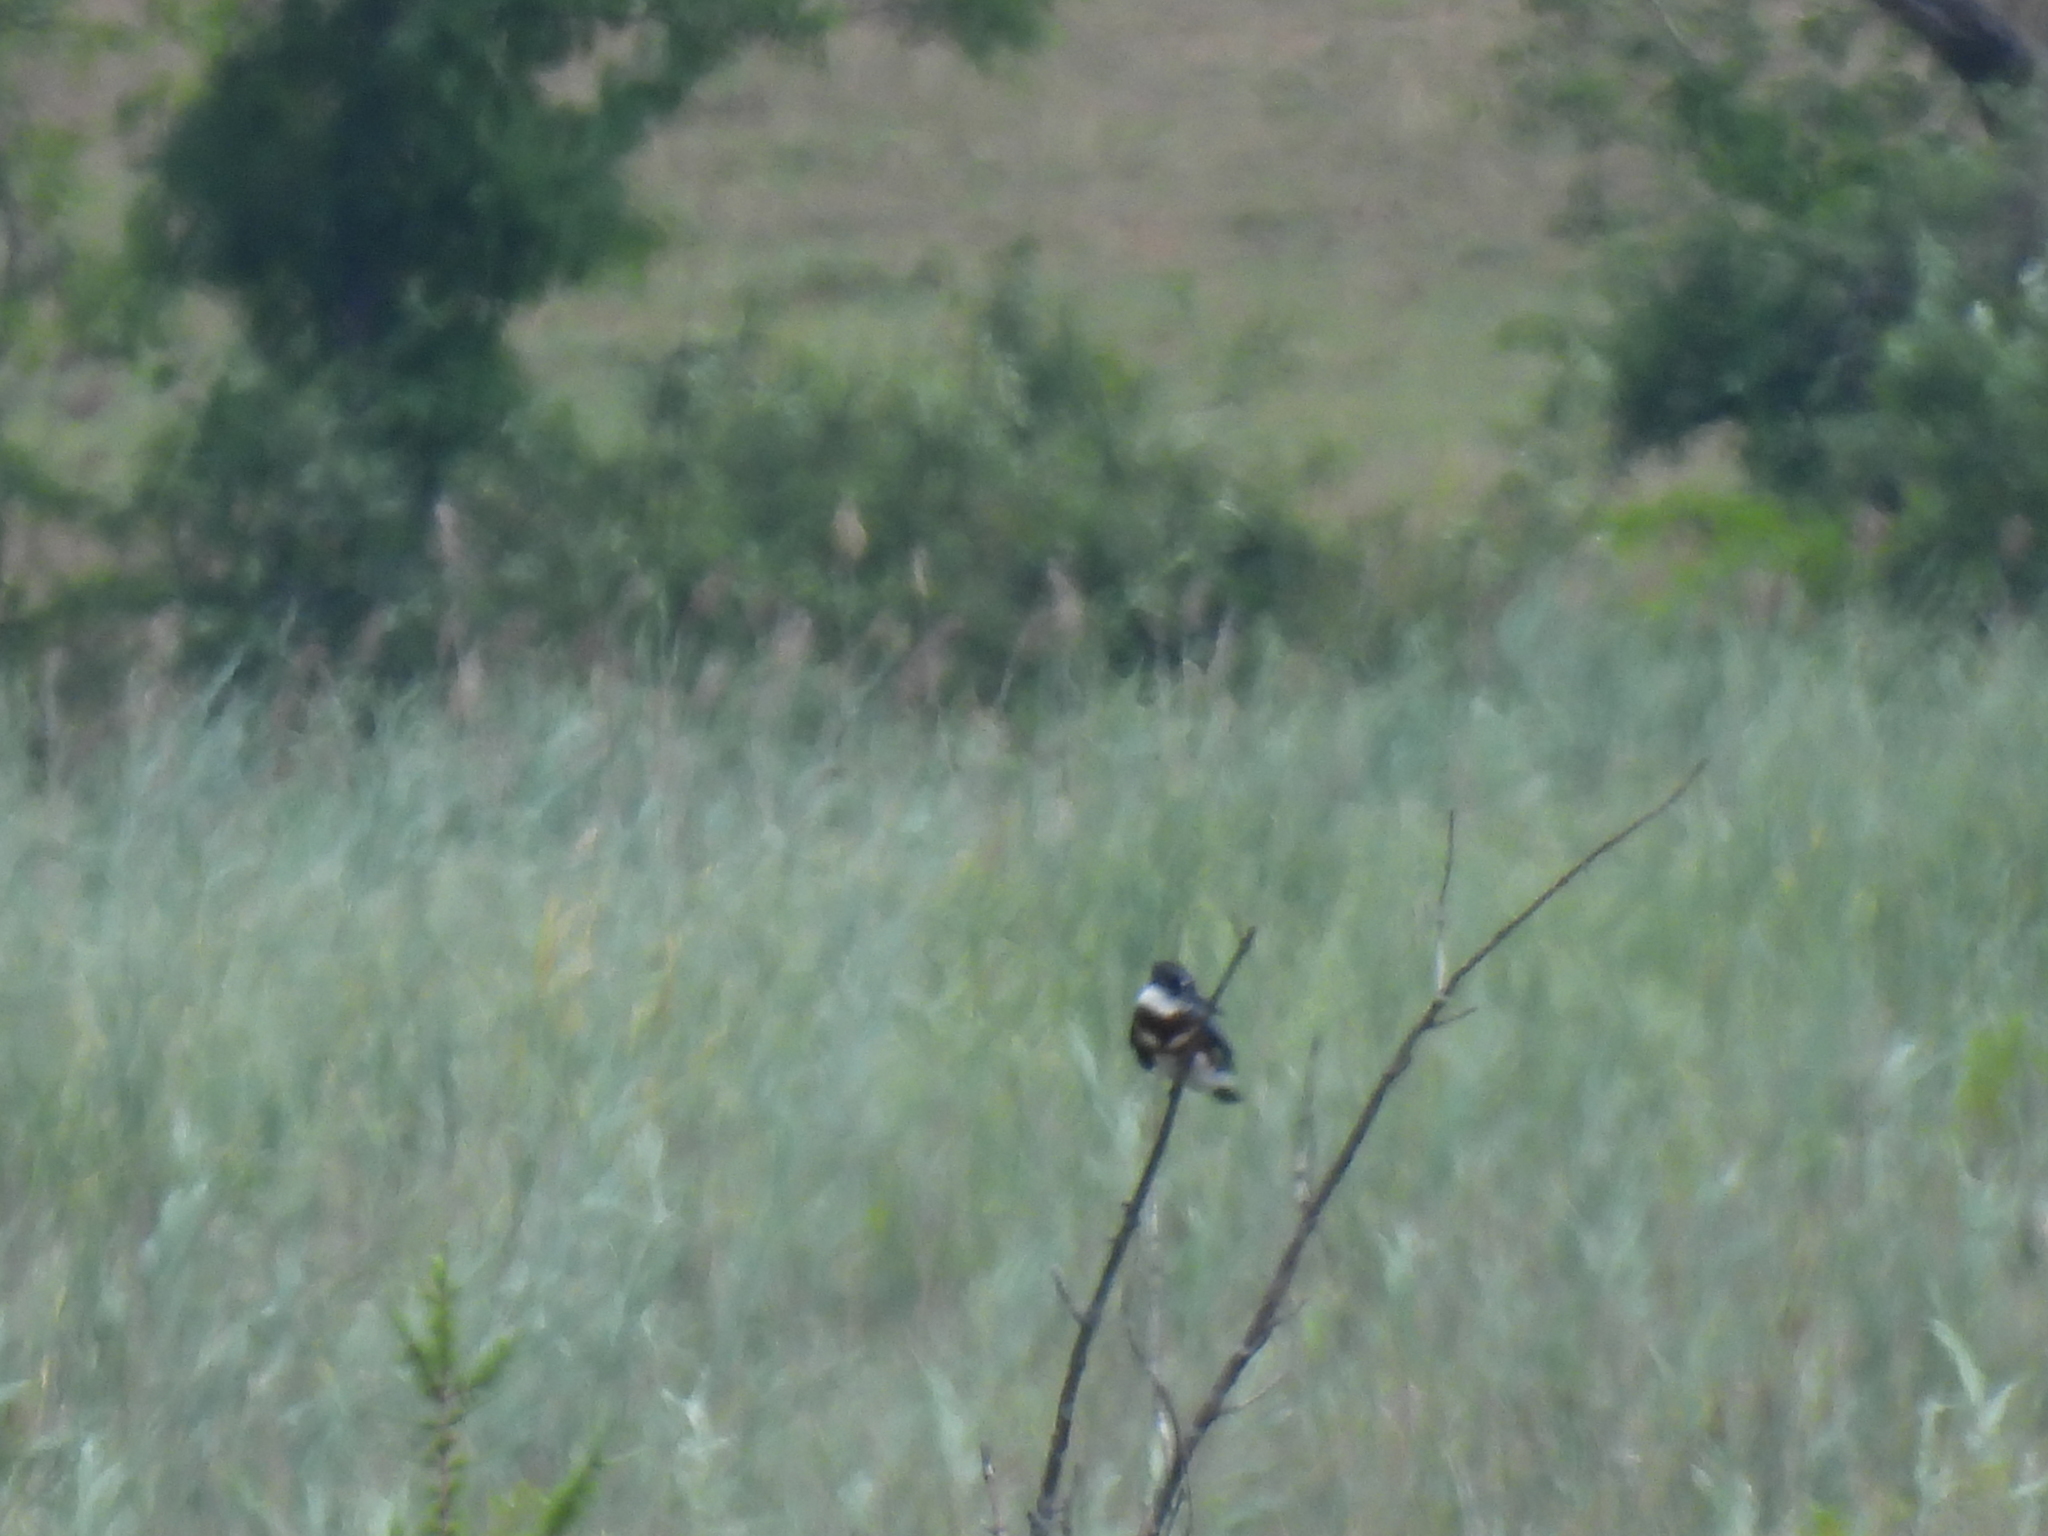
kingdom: Animalia
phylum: Chordata
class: Aves
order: Coraciiformes
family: Alcedinidae
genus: Megaceryle
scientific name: Megaceryle alcyon
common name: Belted kingfisher
